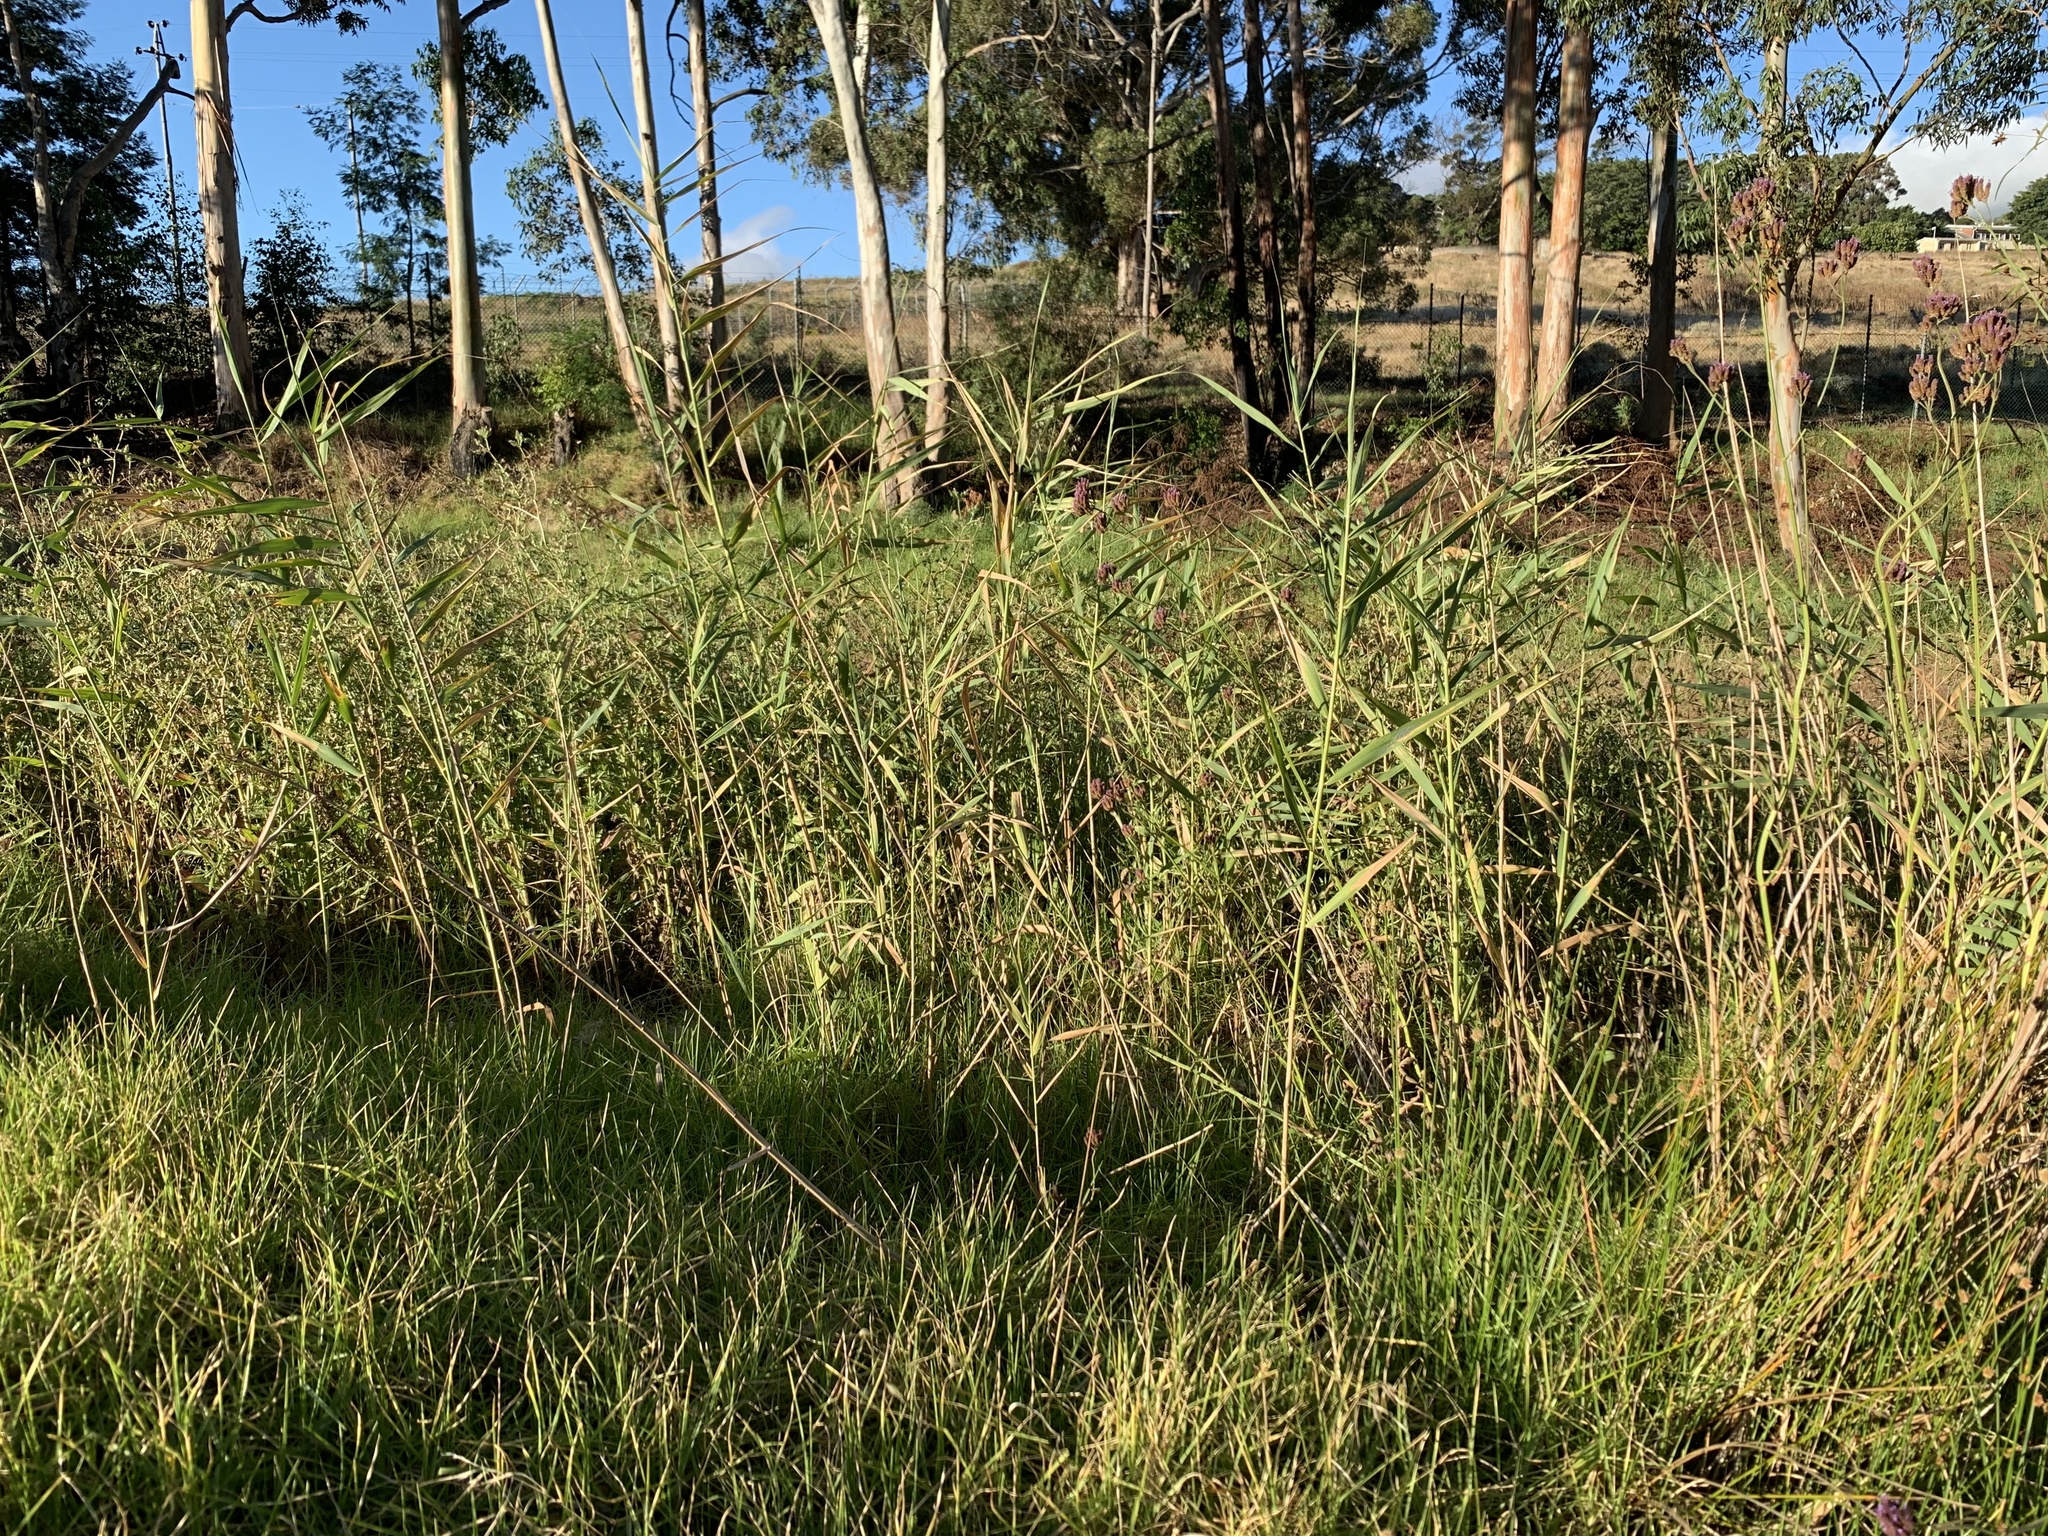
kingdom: Plantae
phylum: Tracheophyta
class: Liliopsida
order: Poales
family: Poaceae
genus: Phragmites
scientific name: Phragmites australis
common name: Common reed
